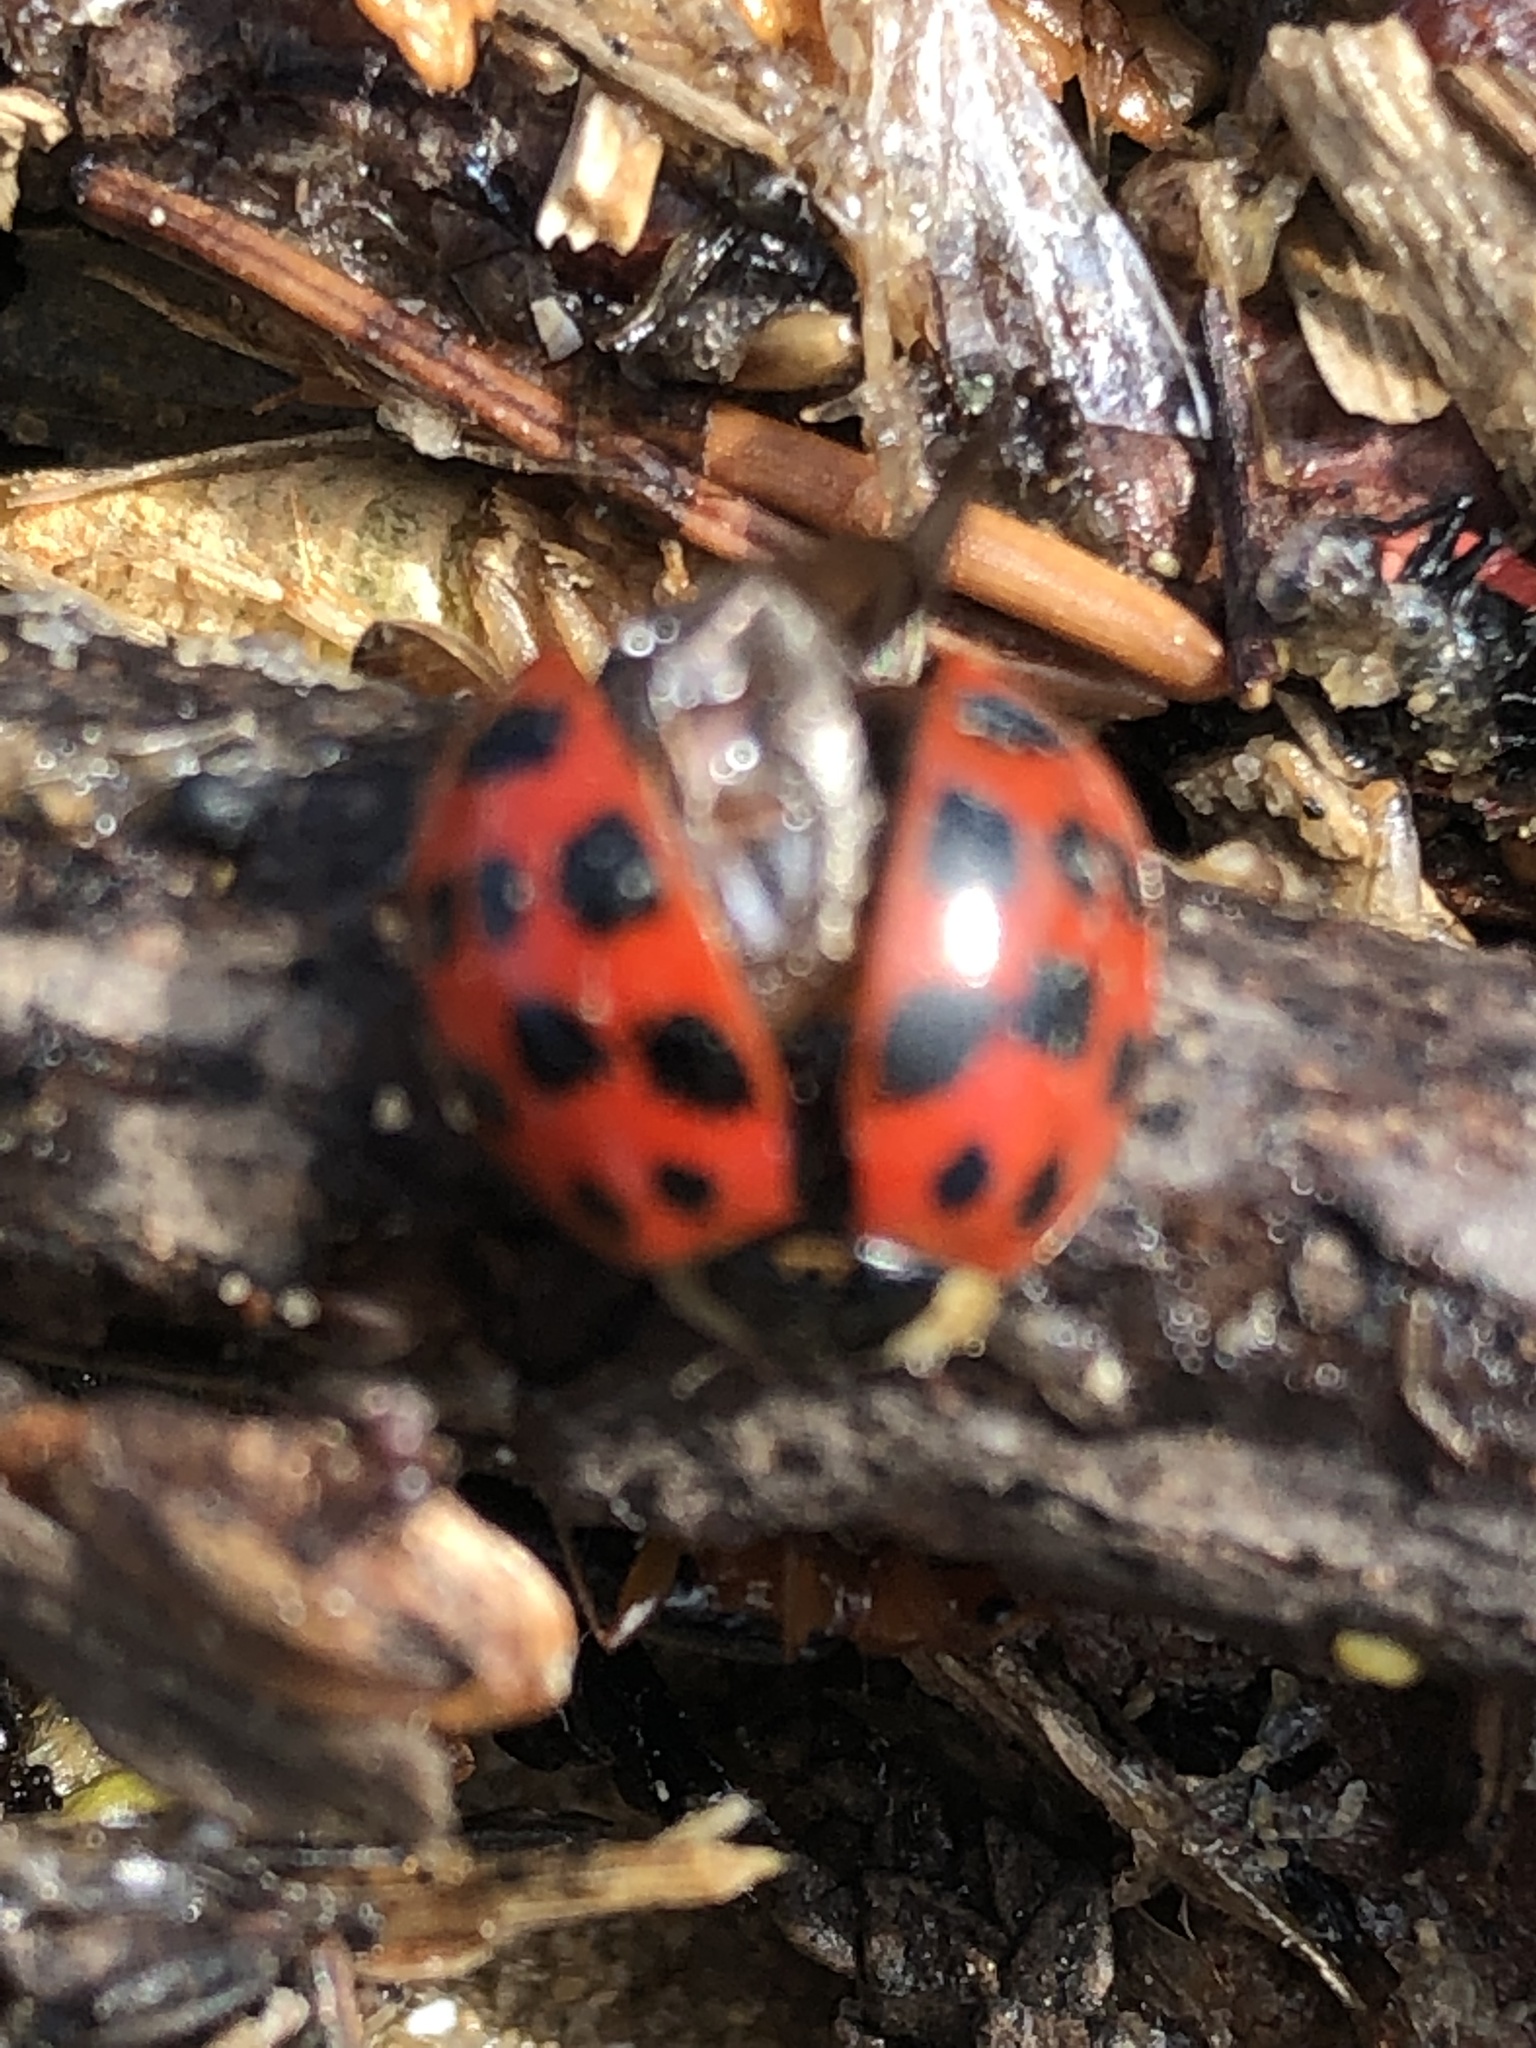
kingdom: Animalia
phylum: Arthropoda
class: Insecta
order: Coleoptera
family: Coccinellidae
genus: Harmonia
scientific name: Harmonia axyridis
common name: Harlequin ladybird
